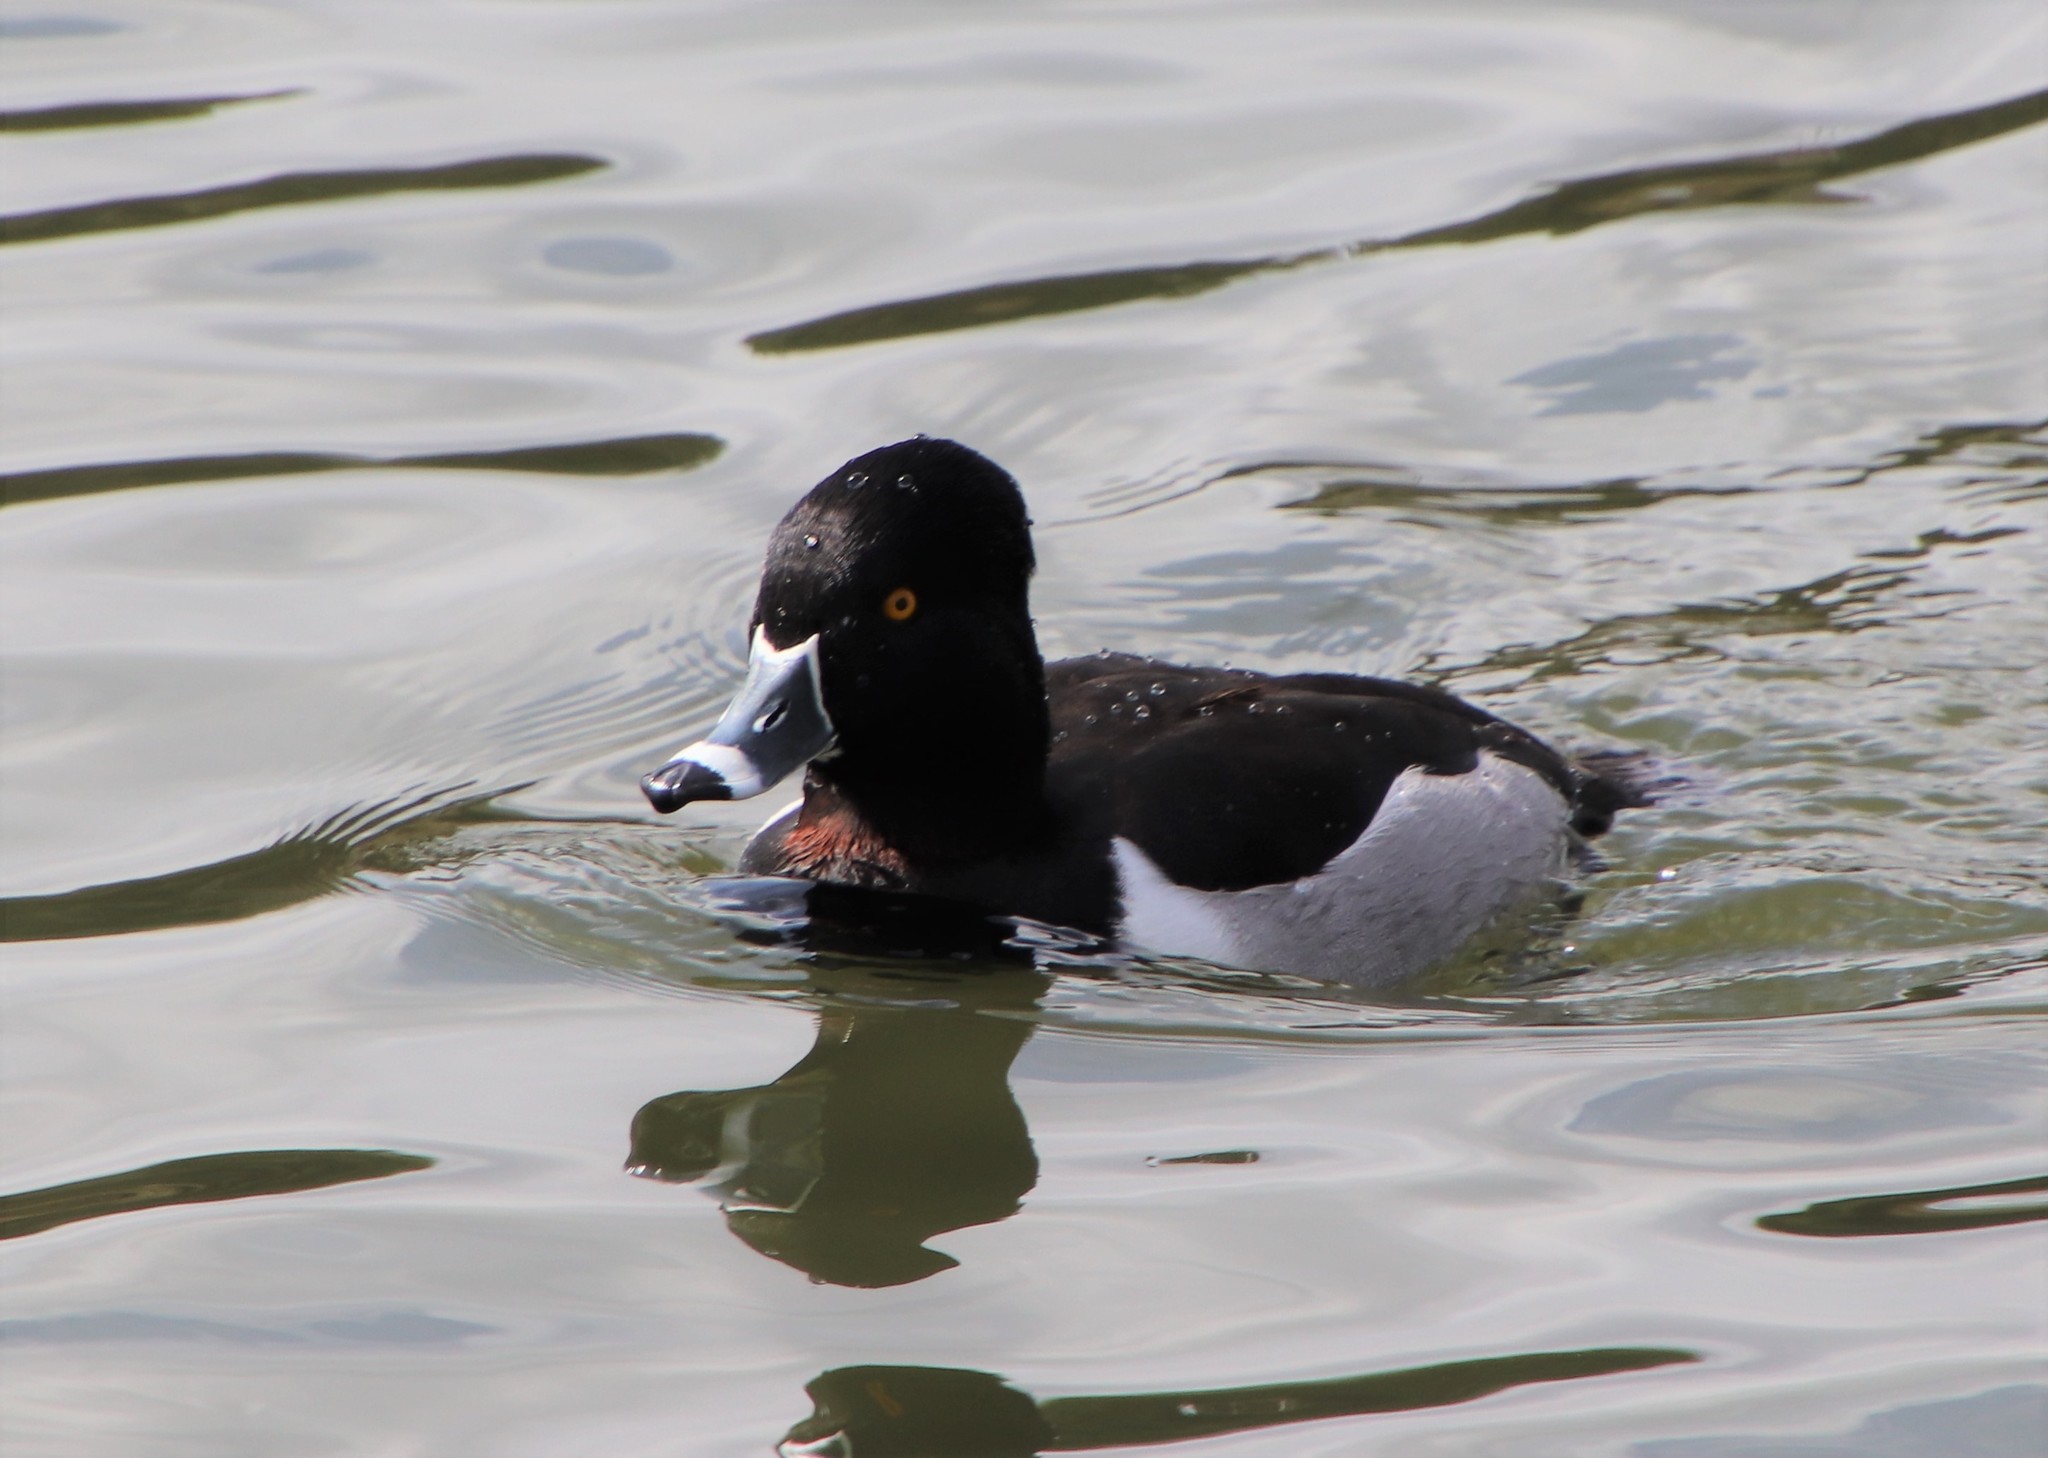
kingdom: Animalia
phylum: Chordata
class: Aves
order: Anseriformes
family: Anatidae
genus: Aythya
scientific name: Aythya collaris
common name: Ring-necked duck
